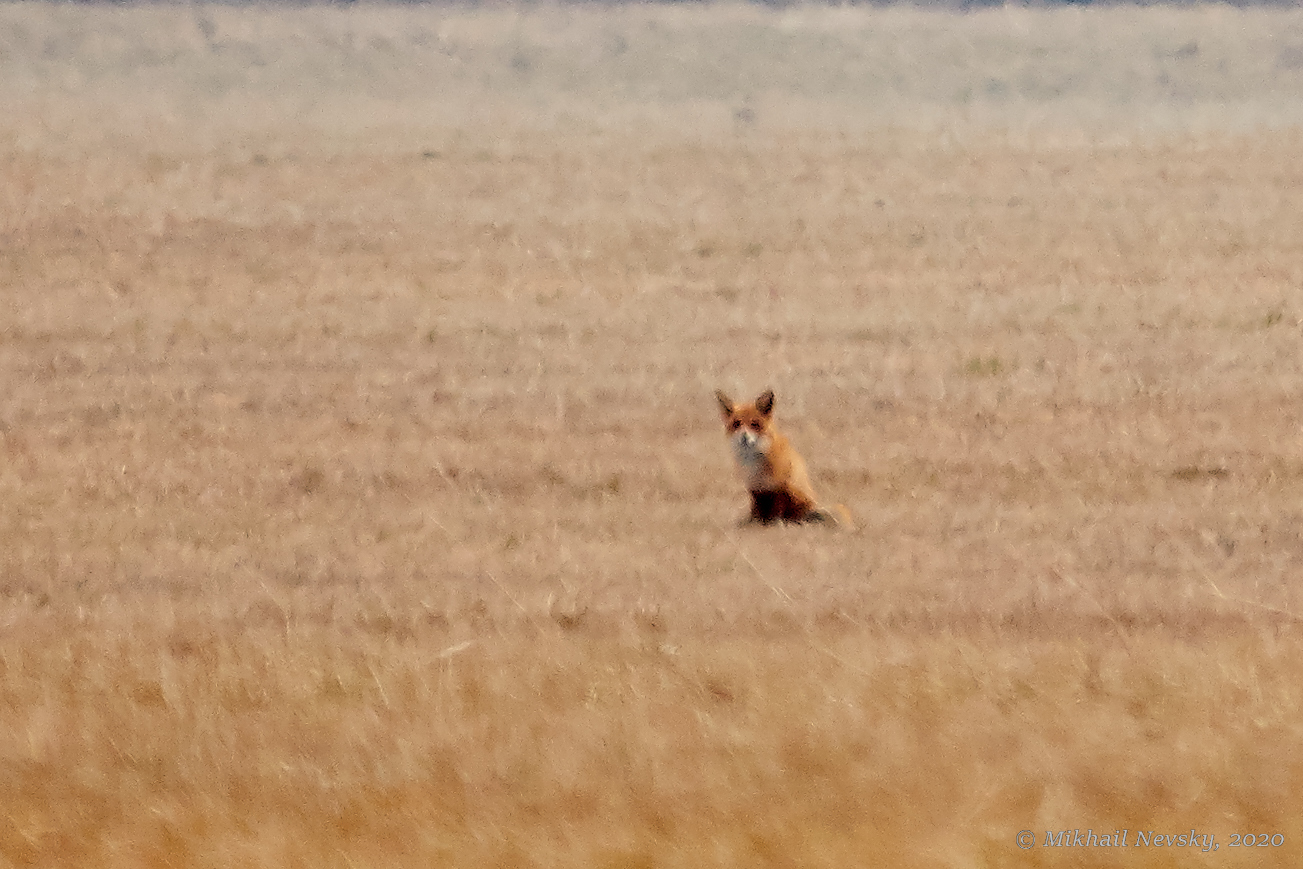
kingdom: Animalia
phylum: Chordata
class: Mammalia
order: Carnivora
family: Canidae
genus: Vulpes
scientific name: Vulpes vulpes
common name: Red fox
